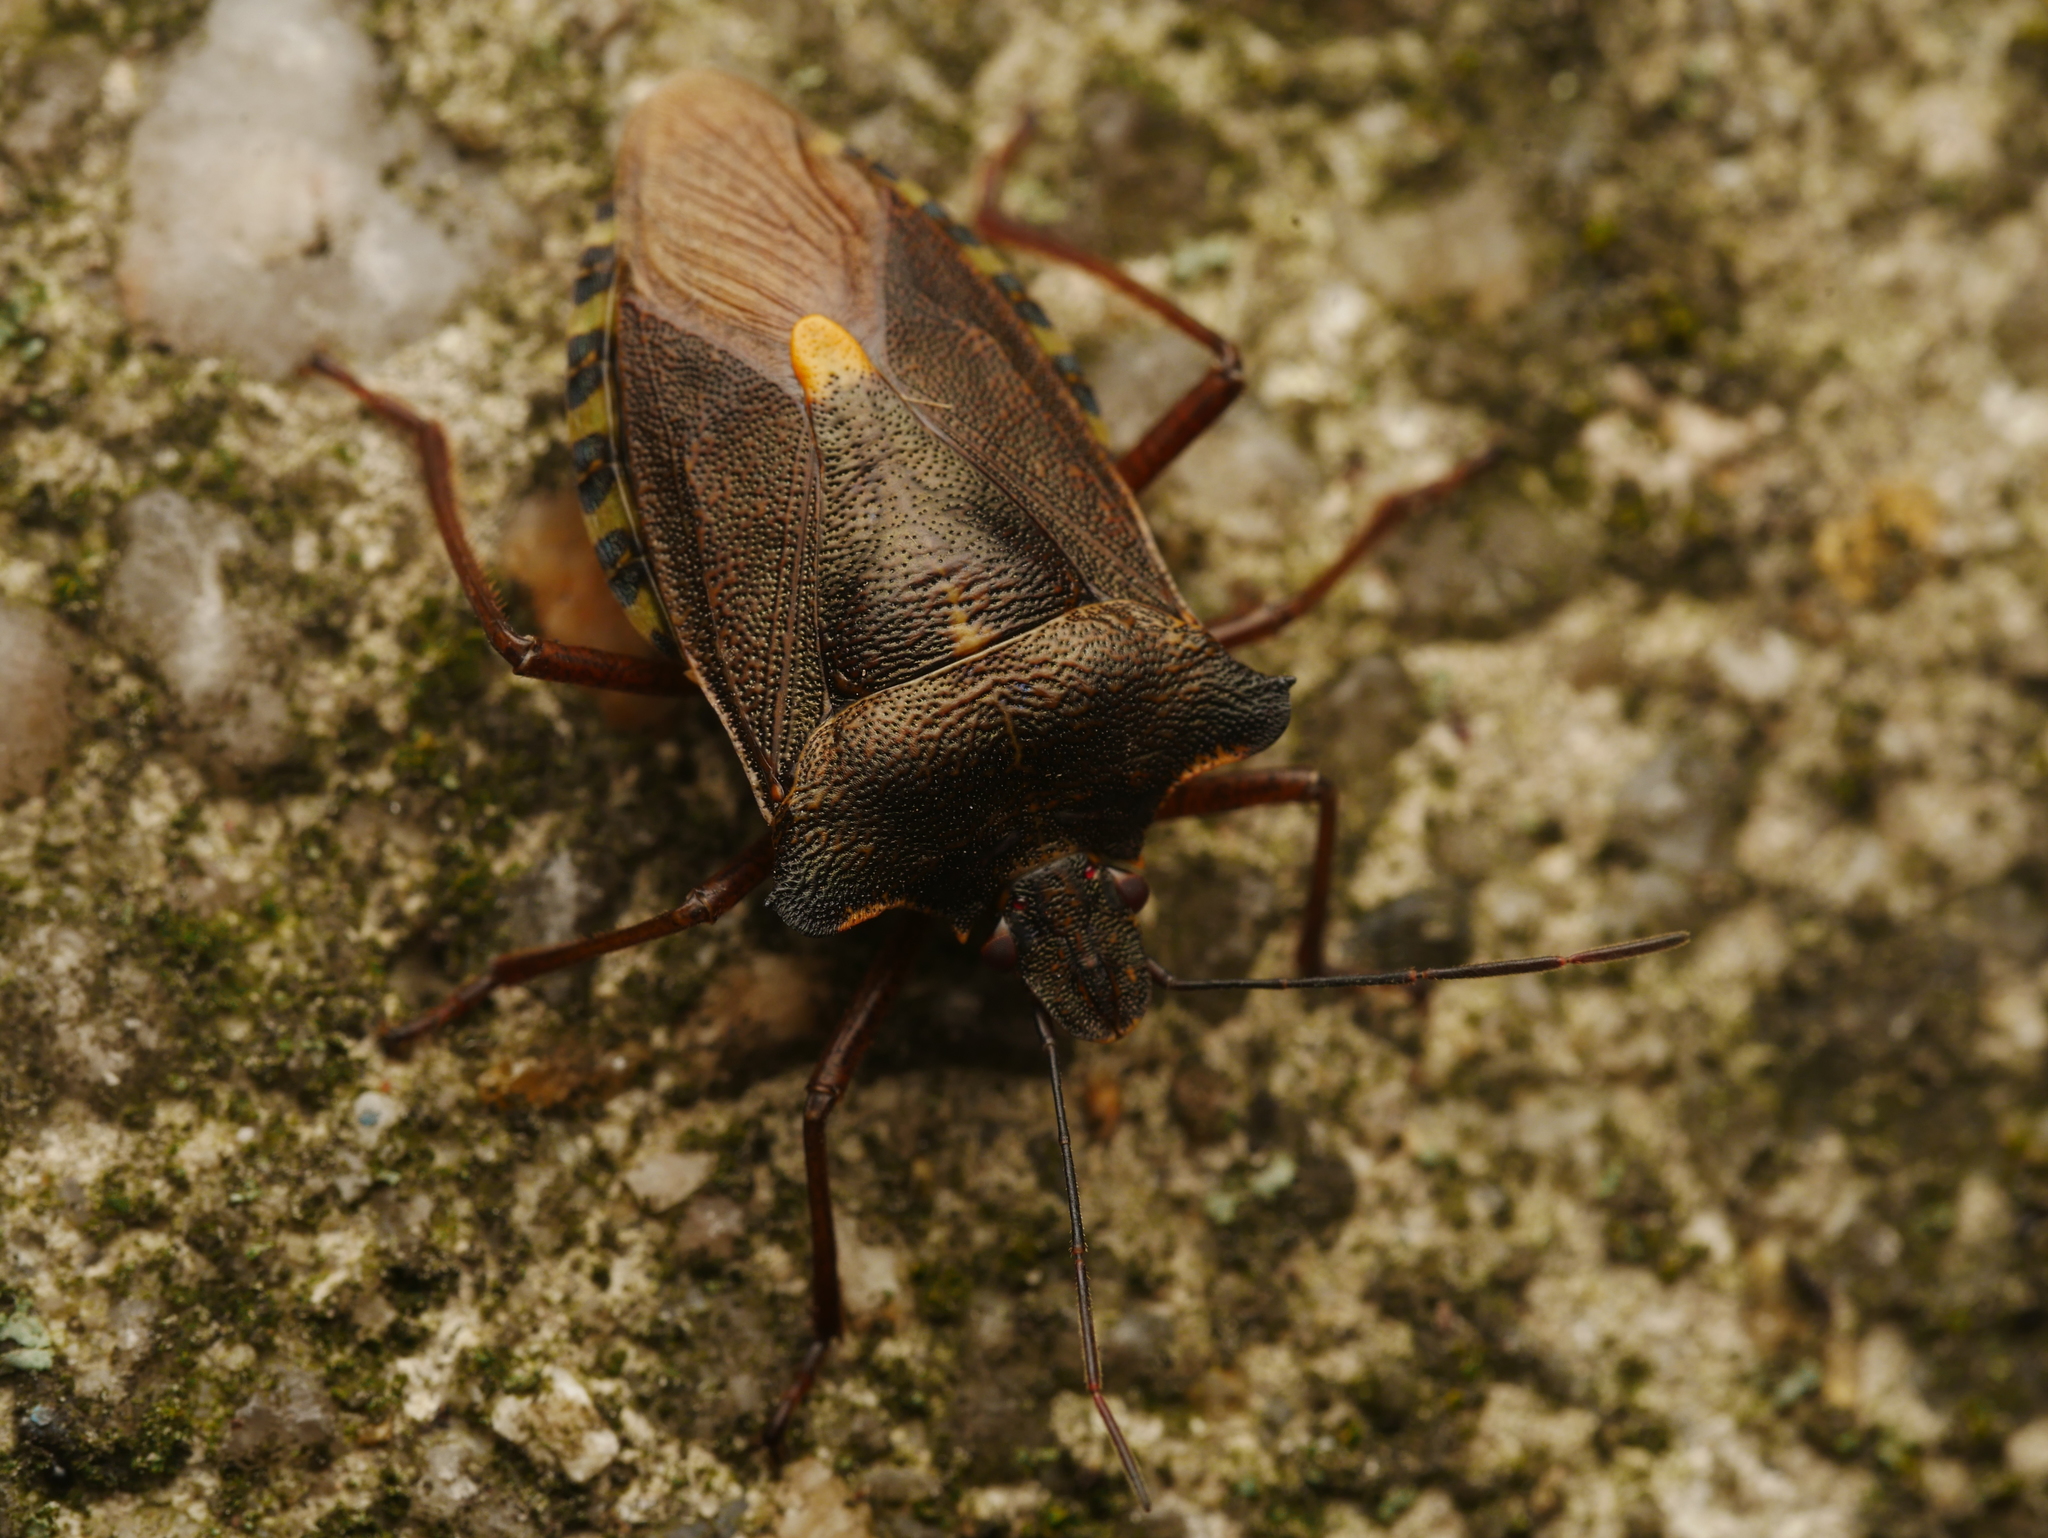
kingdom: Animalia
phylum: Arthropoda
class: Insecta
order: Hemiptera
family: Pentatomidae
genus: Pentatoma
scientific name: Pentatoma rufipes
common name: Forest bug
